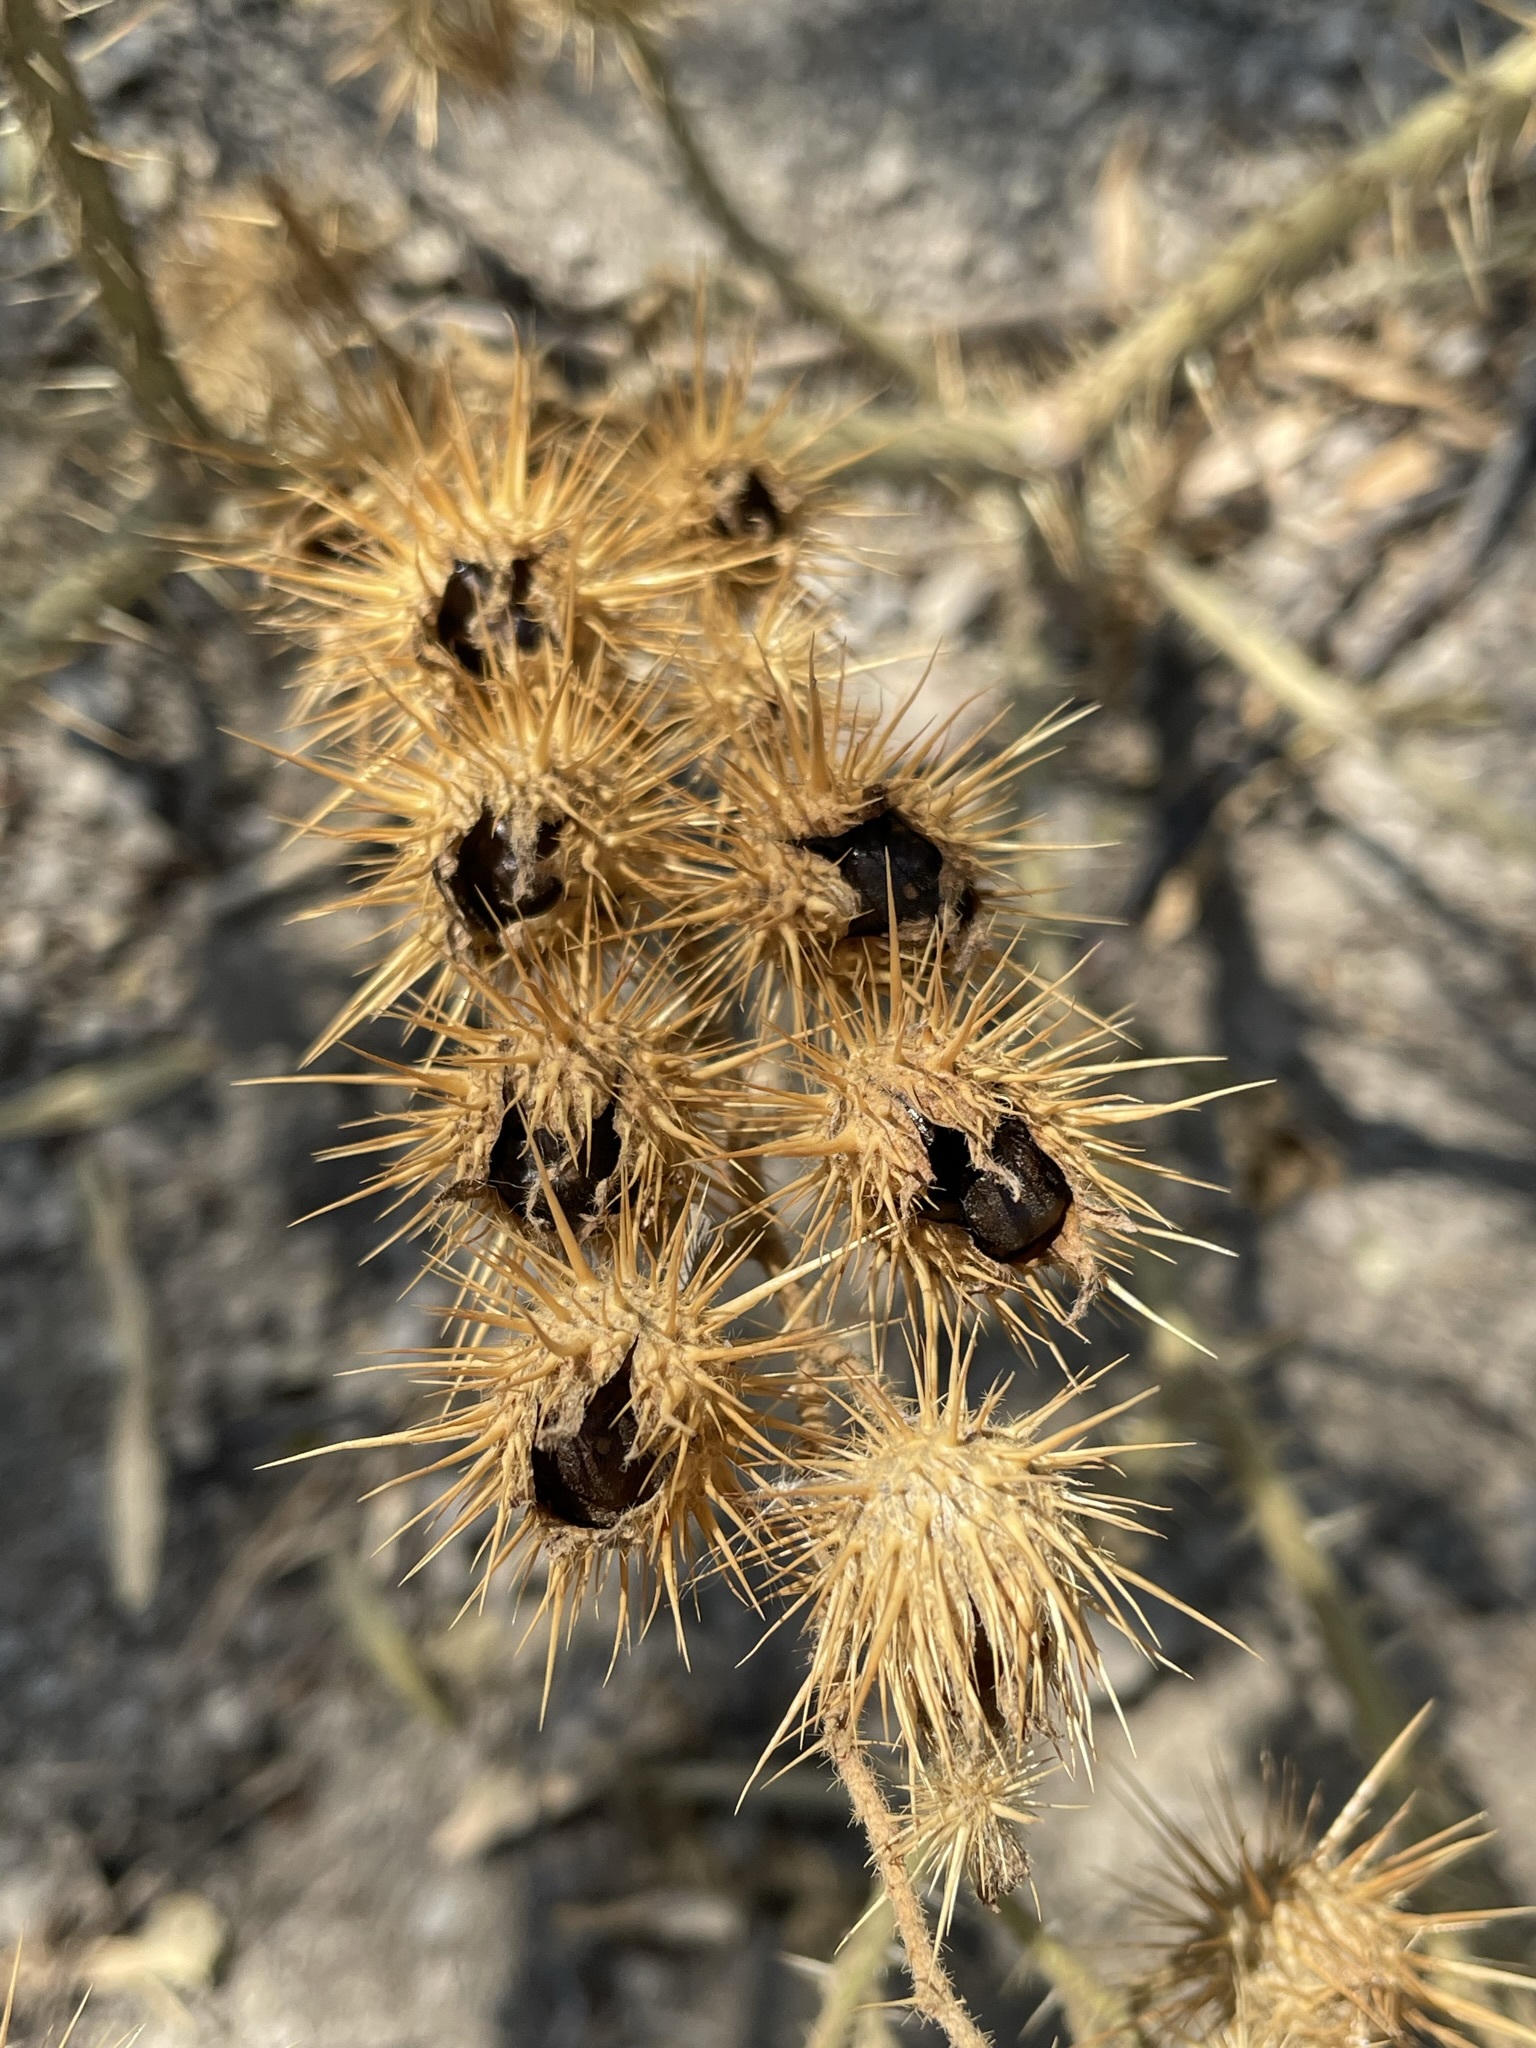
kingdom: Plantae
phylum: Tracheophyta
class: Magnoliopsida
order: Solanales
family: Solanaceae
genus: Solanum
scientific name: Solanum angustifolium
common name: Buffalobur nightshade
